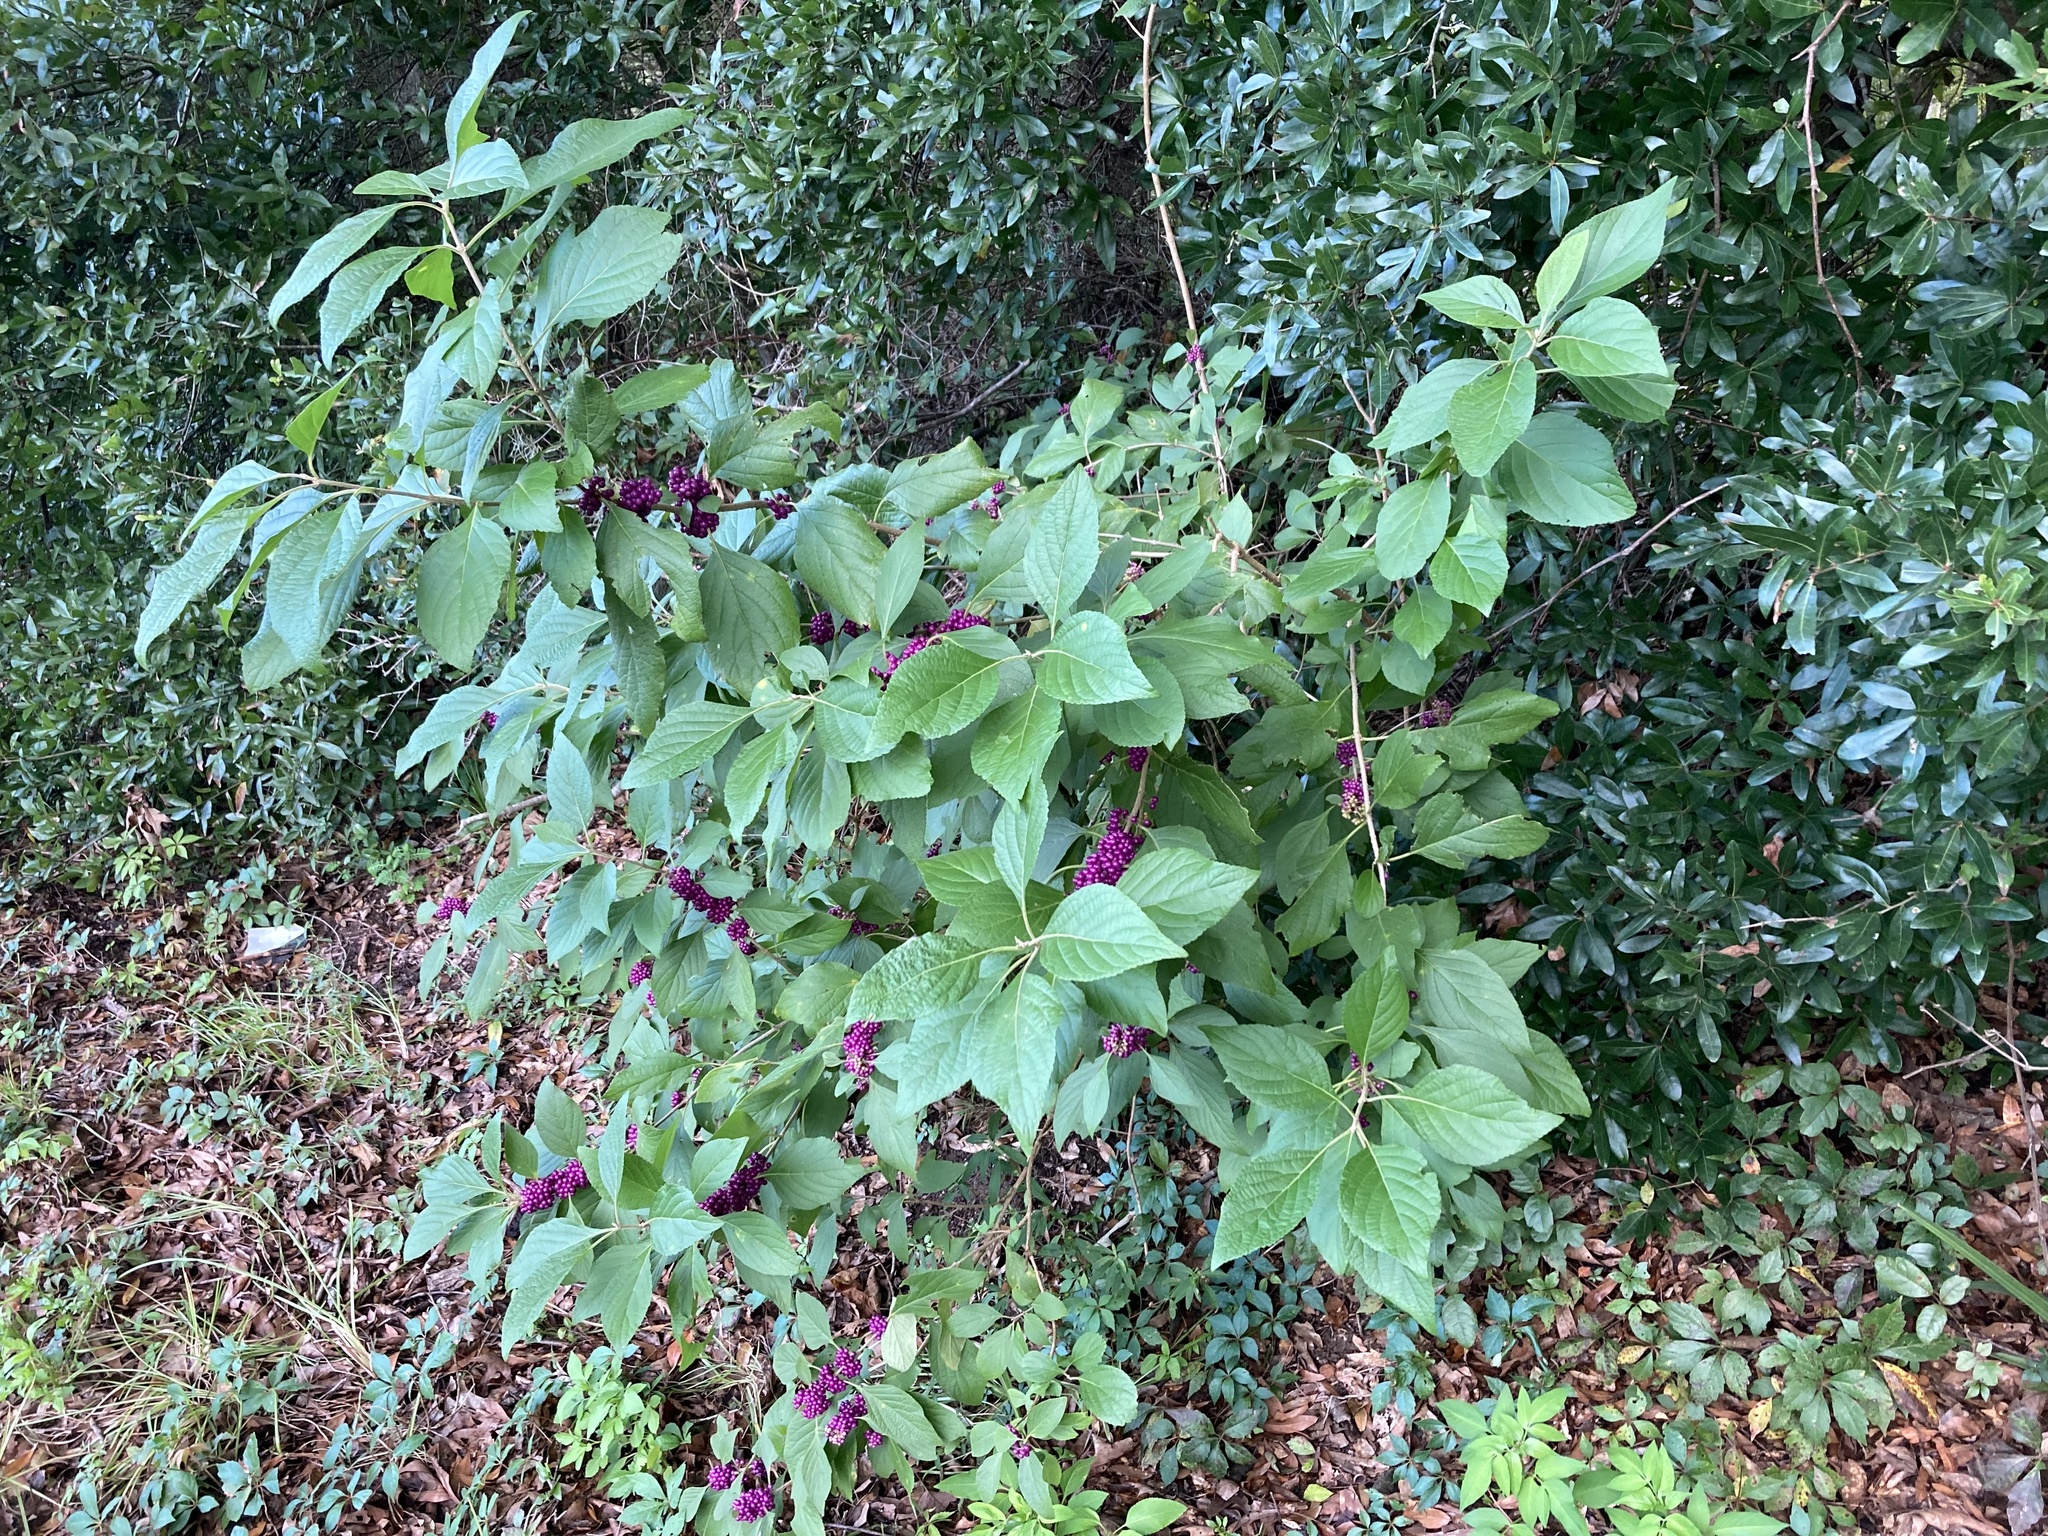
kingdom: Plantae
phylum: Tracheophyta
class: Magnoliopsida
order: Lamiales
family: Lamiaceae
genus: Callicarpa
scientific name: Callicarpa americana
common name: American beautyberry
